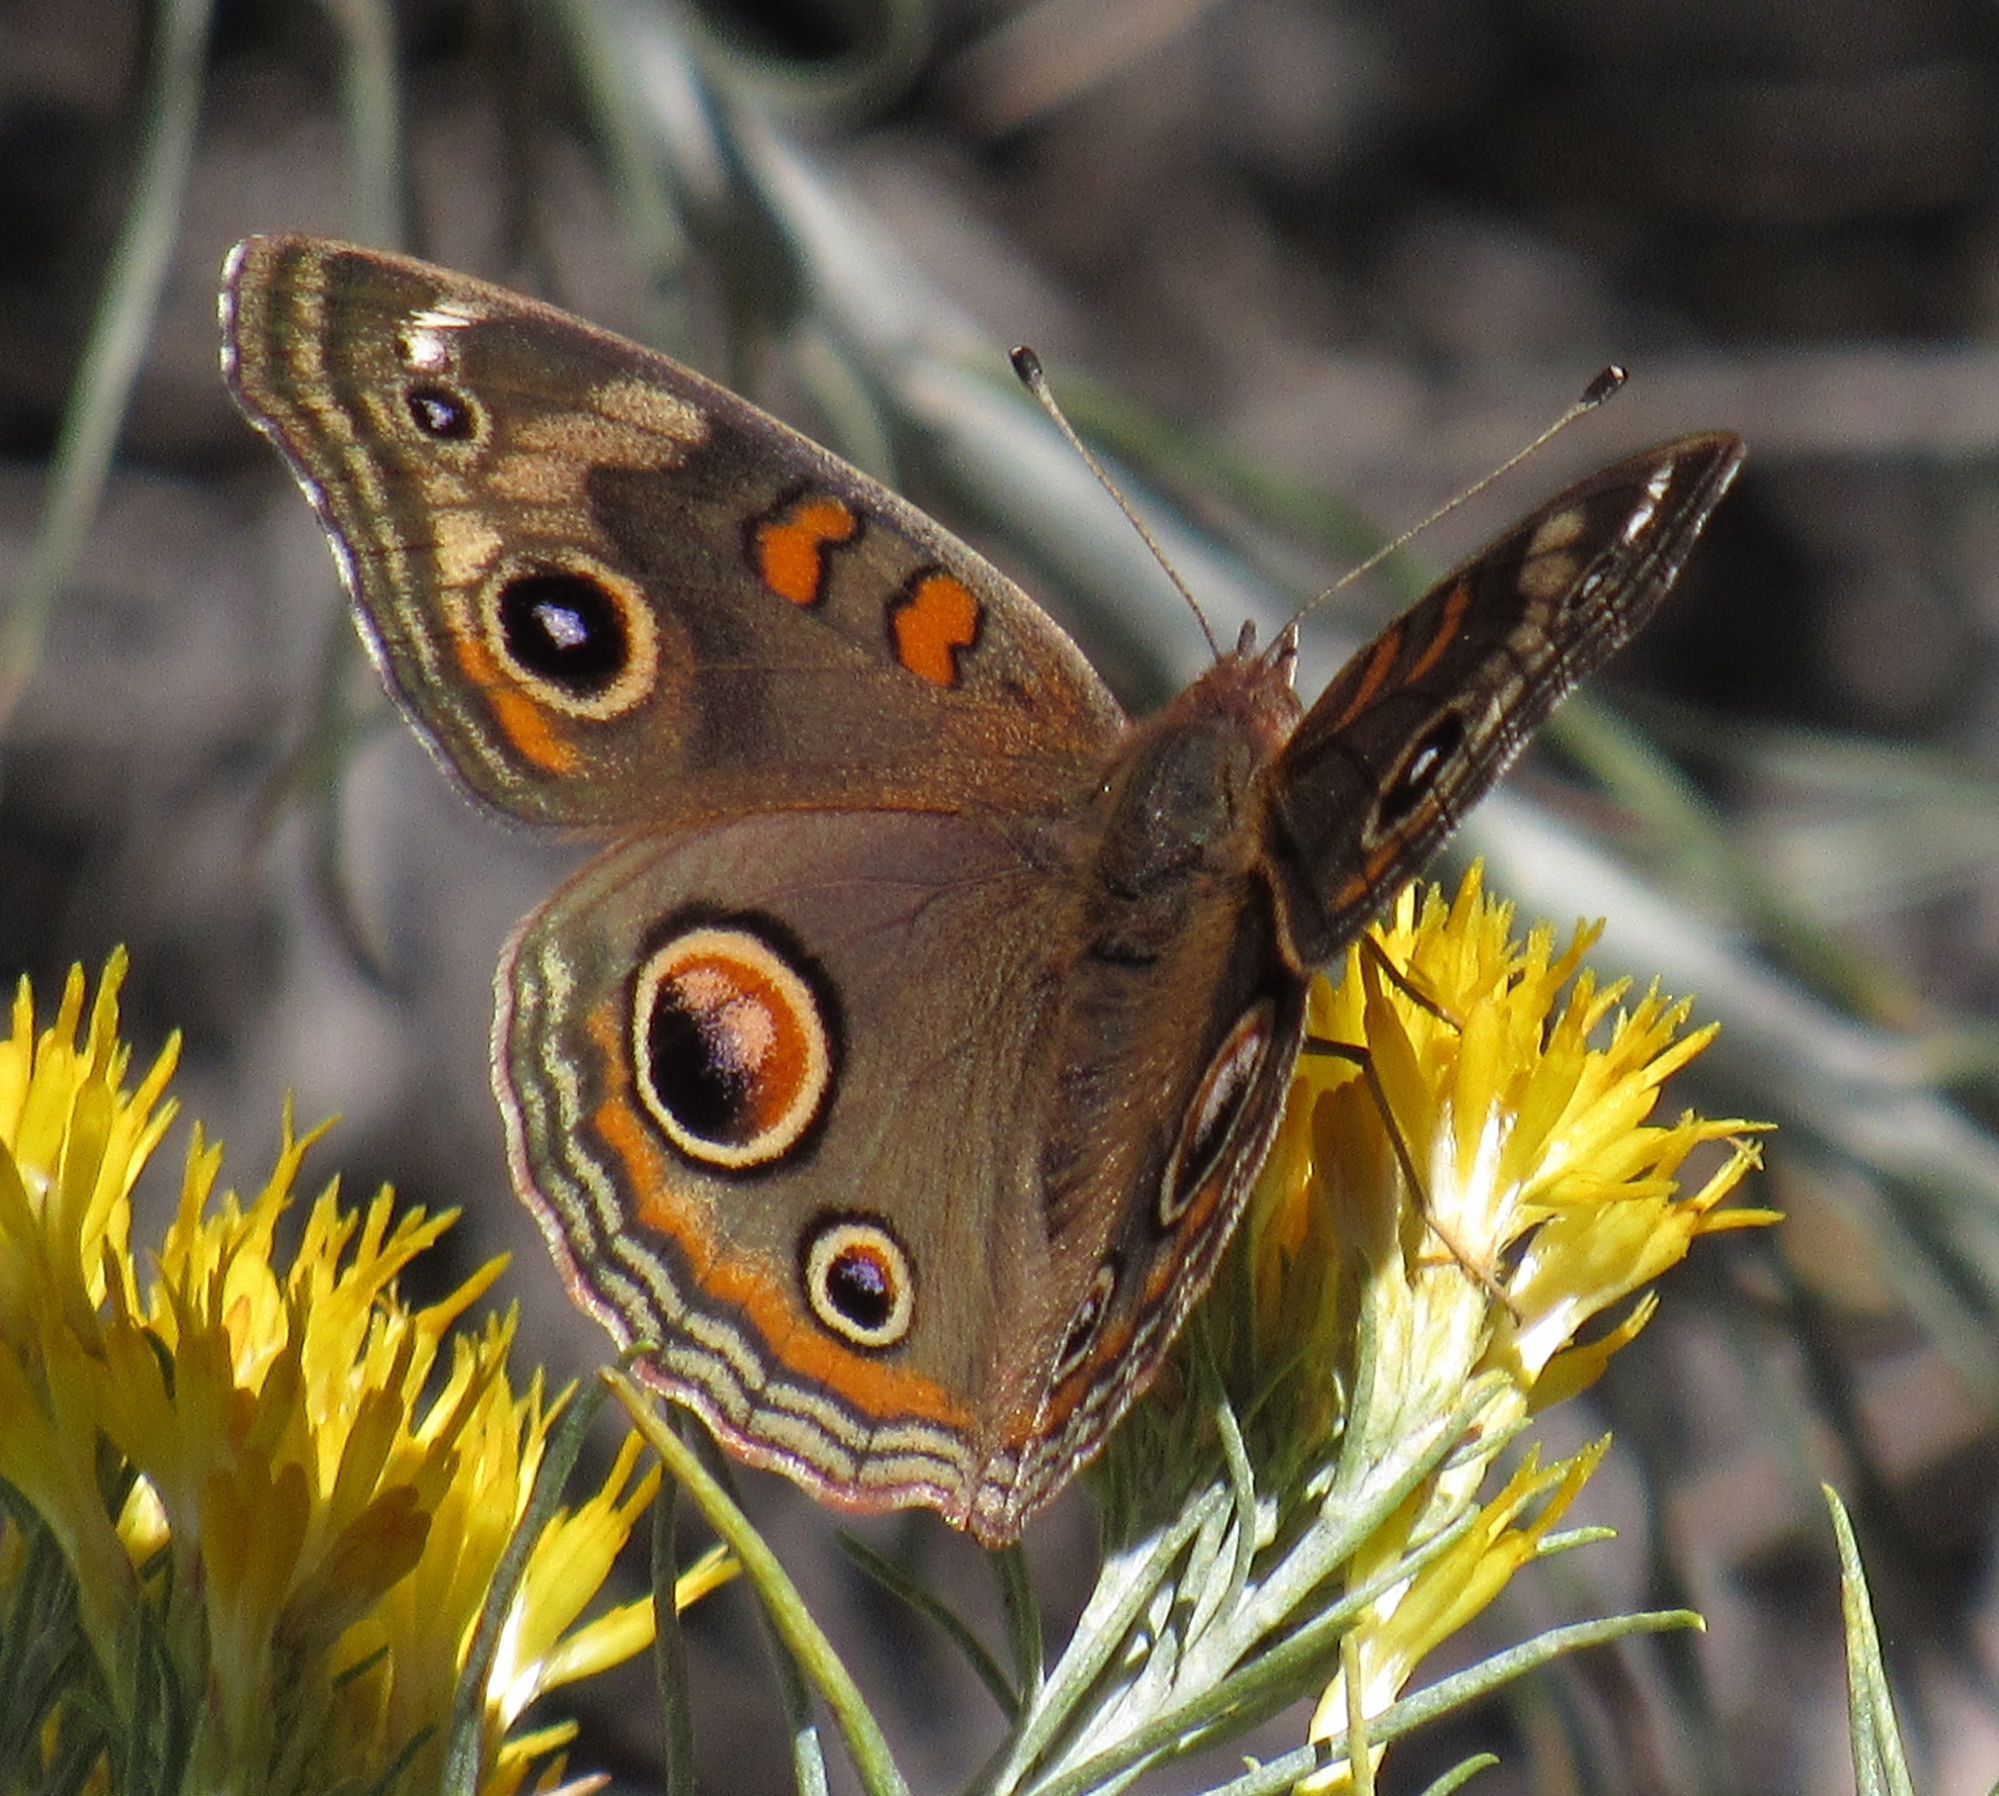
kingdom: Animalia
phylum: Arthropoda
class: Insecta
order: Lepidoptera
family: Nymphalidae
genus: Junonia
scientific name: Junonia grisea
